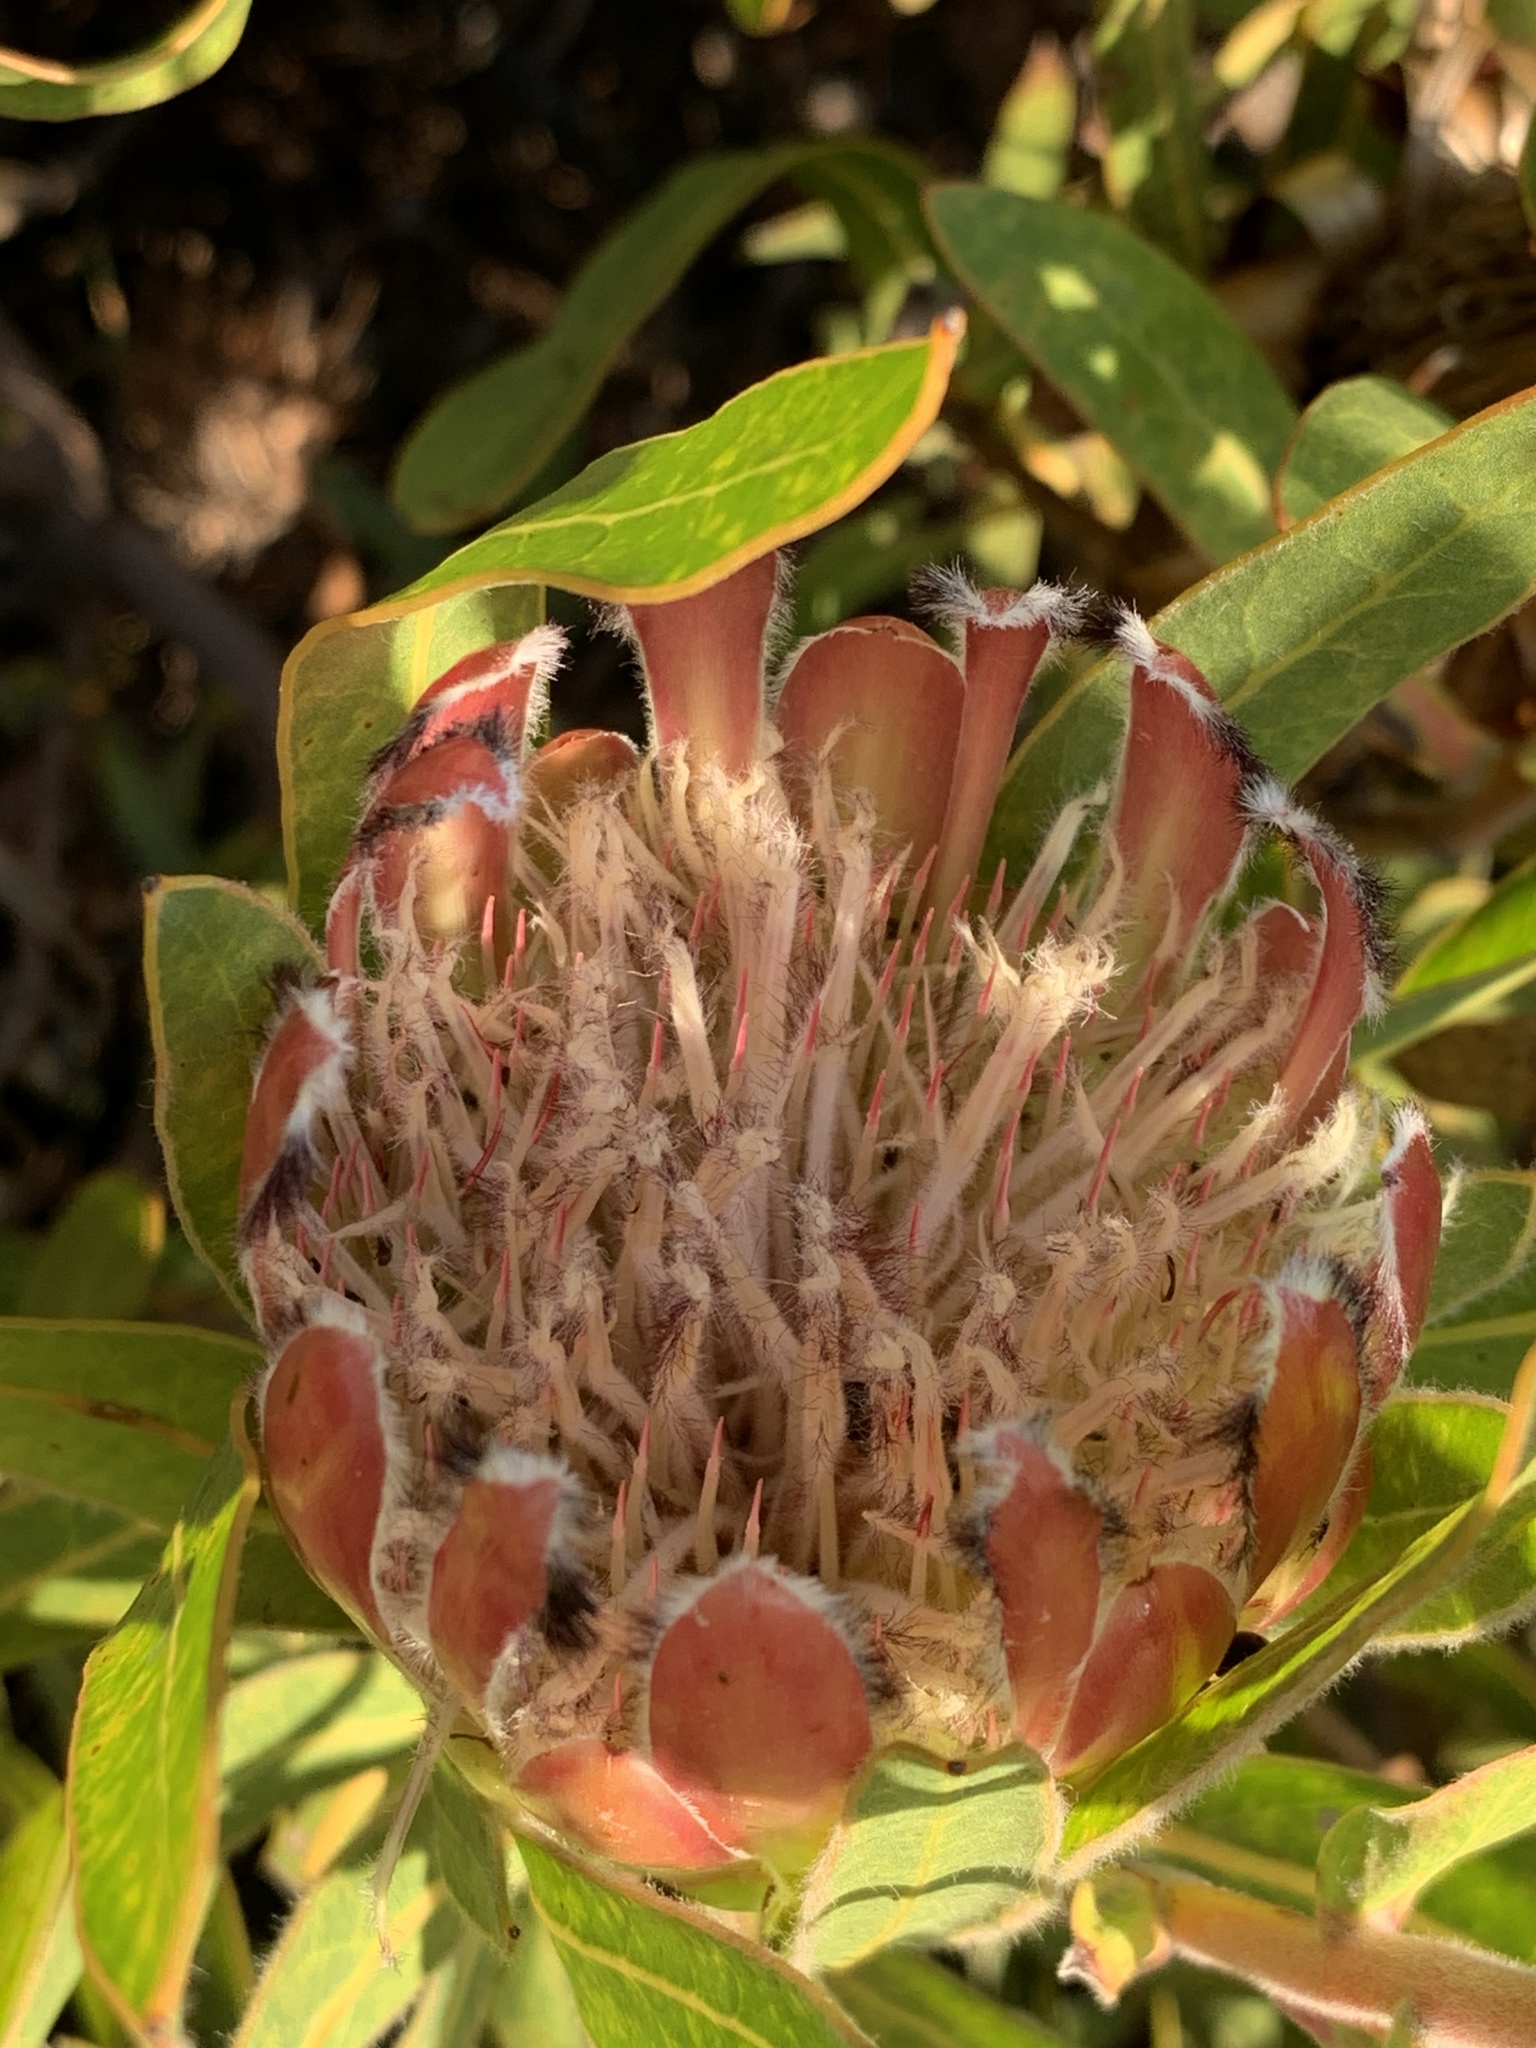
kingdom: Plantae
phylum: Tracheophyta
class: Magnoliopsida
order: Proteales
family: Proteaceae
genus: Protea
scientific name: Protea burchellii
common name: Burchell's sugarbush
